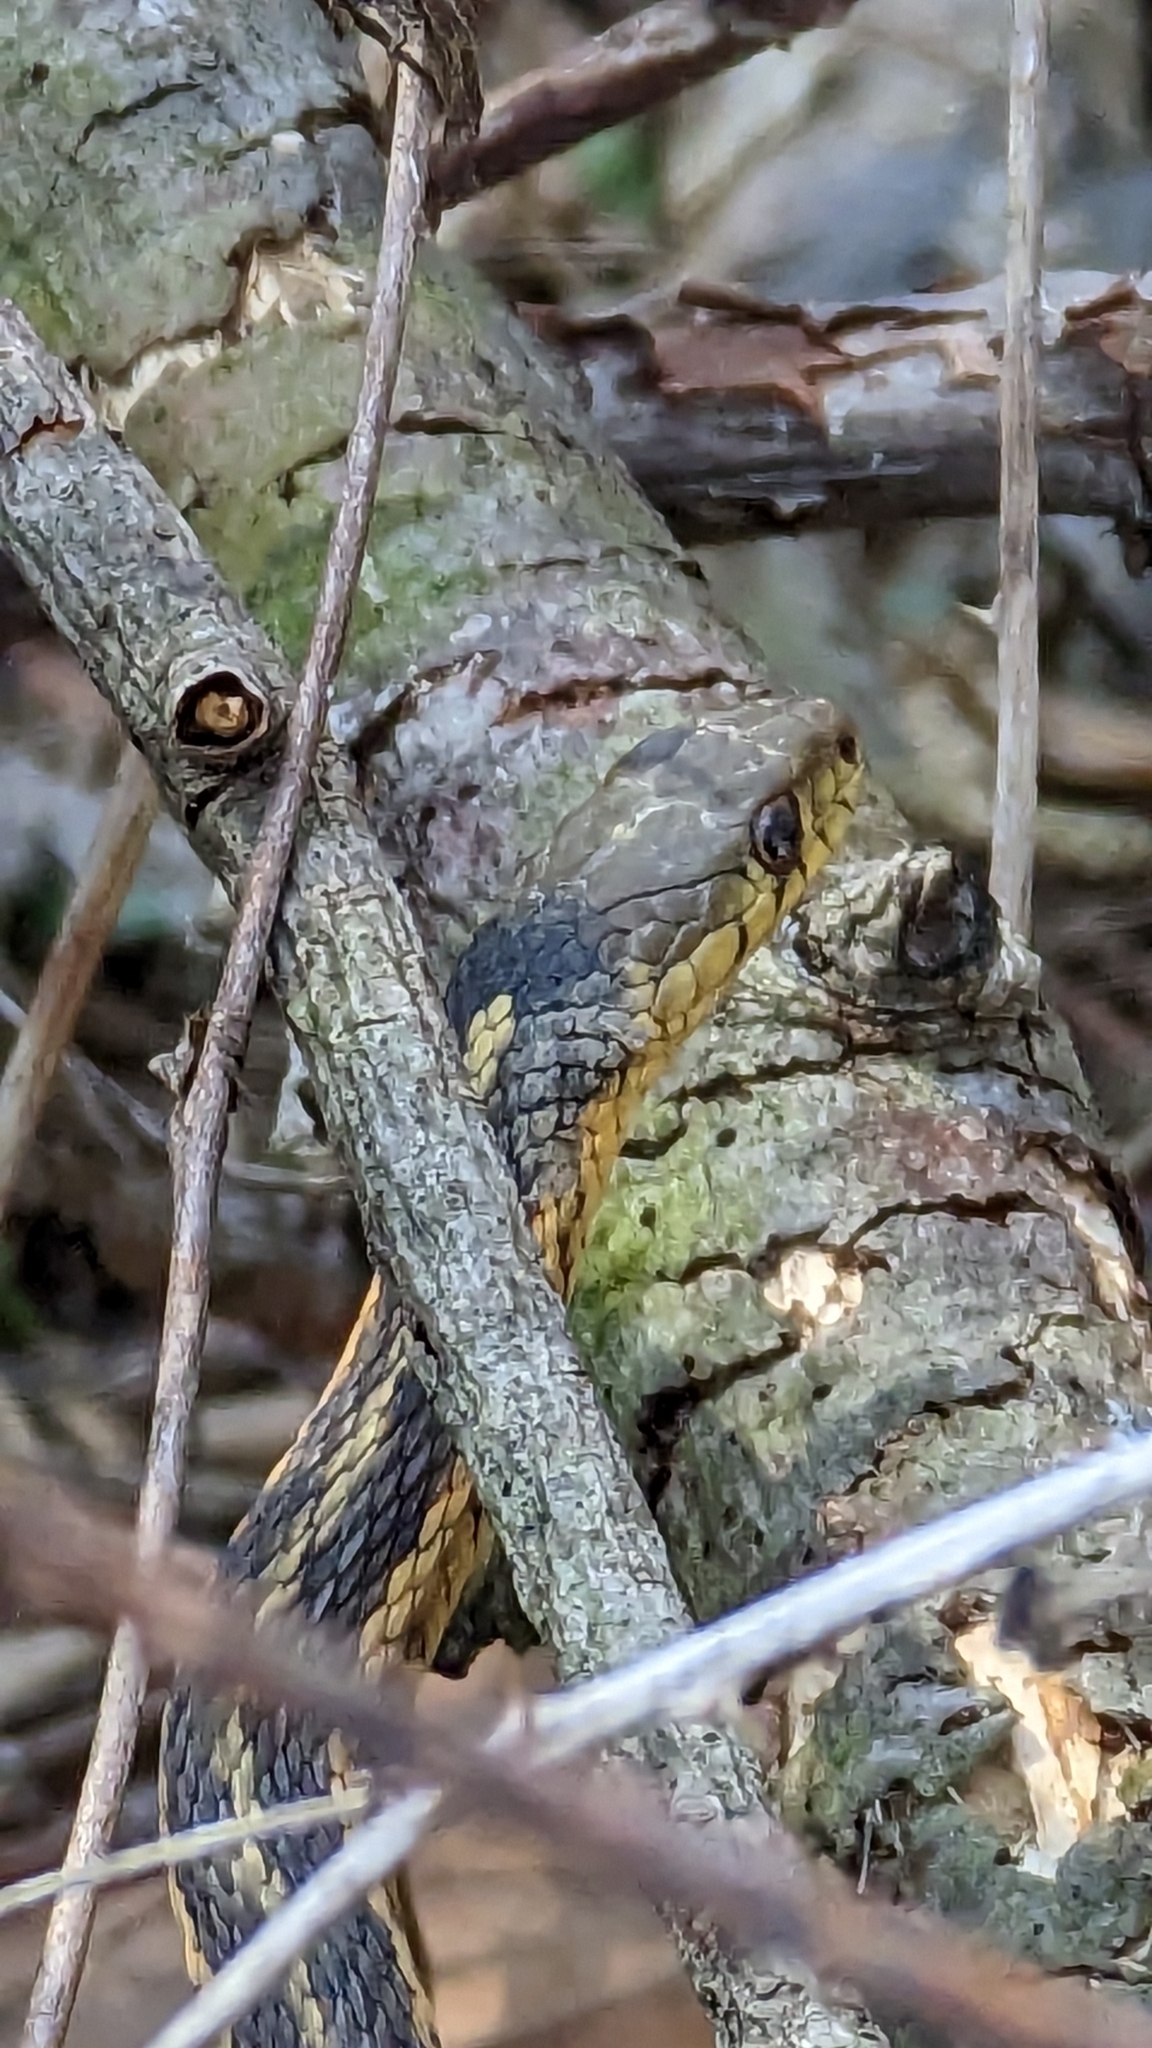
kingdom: Animalia
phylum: Chordata
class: Squamata
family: Colubridae
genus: Thamnophis
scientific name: Thamnophis sirtalis
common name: Common garter snake
